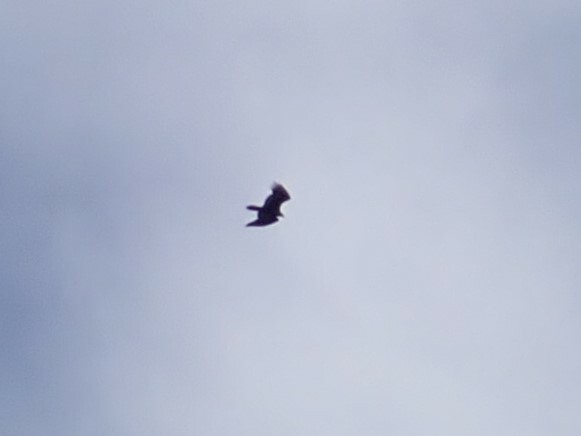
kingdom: Animalia
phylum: Chordata
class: Aves
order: Accipitriformes
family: Cathartidae
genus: Cathartes
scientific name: Cathartes aura
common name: Turkey vulture
